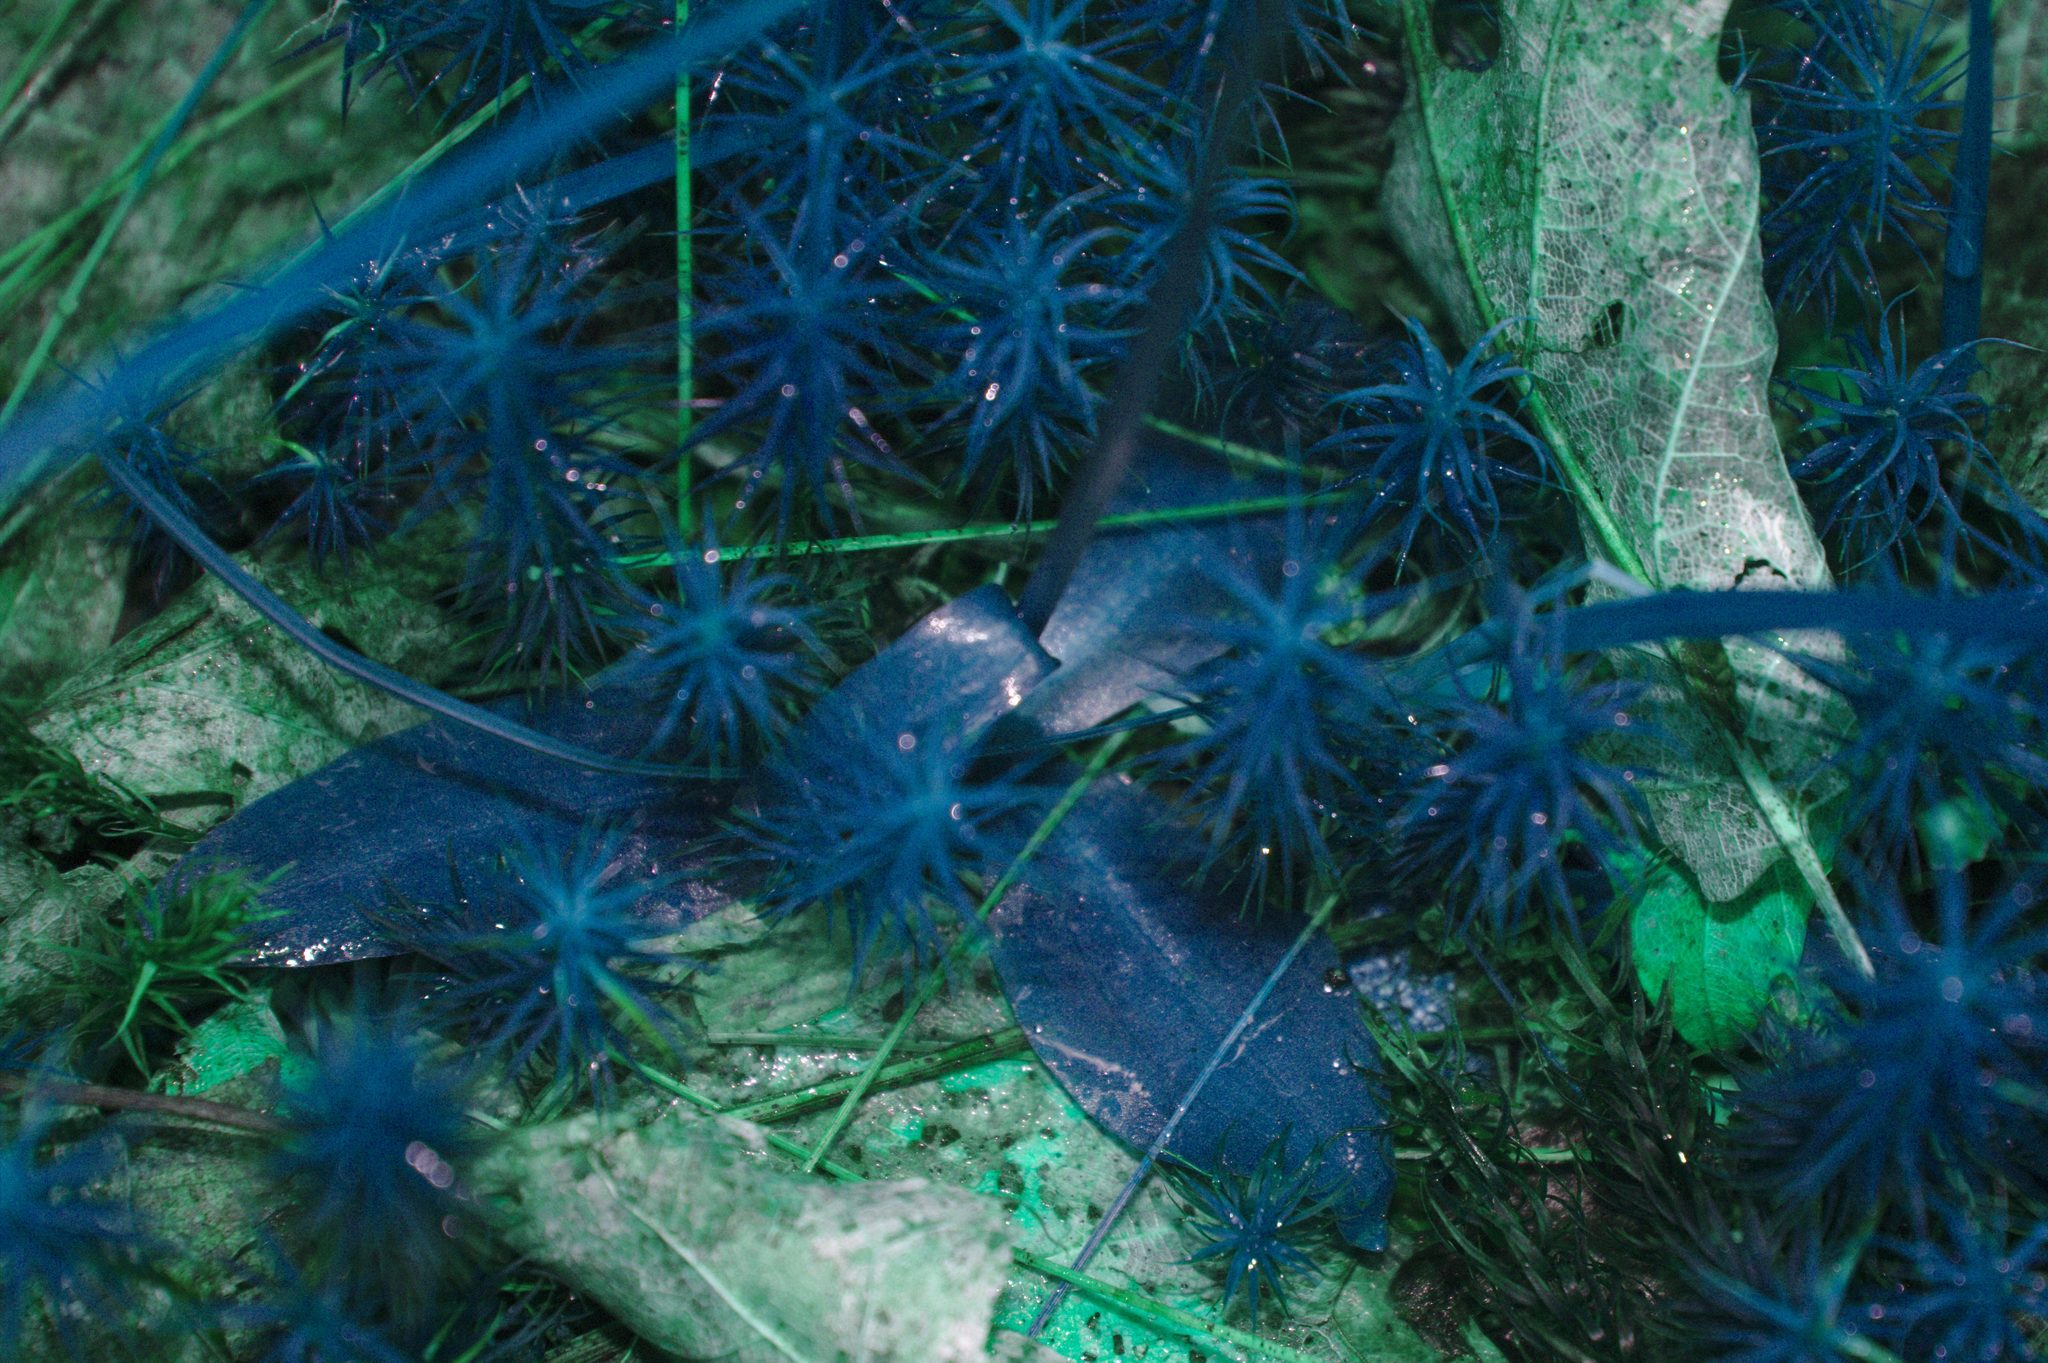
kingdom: Plantae
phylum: Tracheophyta
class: Liliopsida
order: Asparagales
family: Orchidaceae
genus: Spiranthes
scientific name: Spiranthes lacera
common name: Northern slender ladies'-tresses
